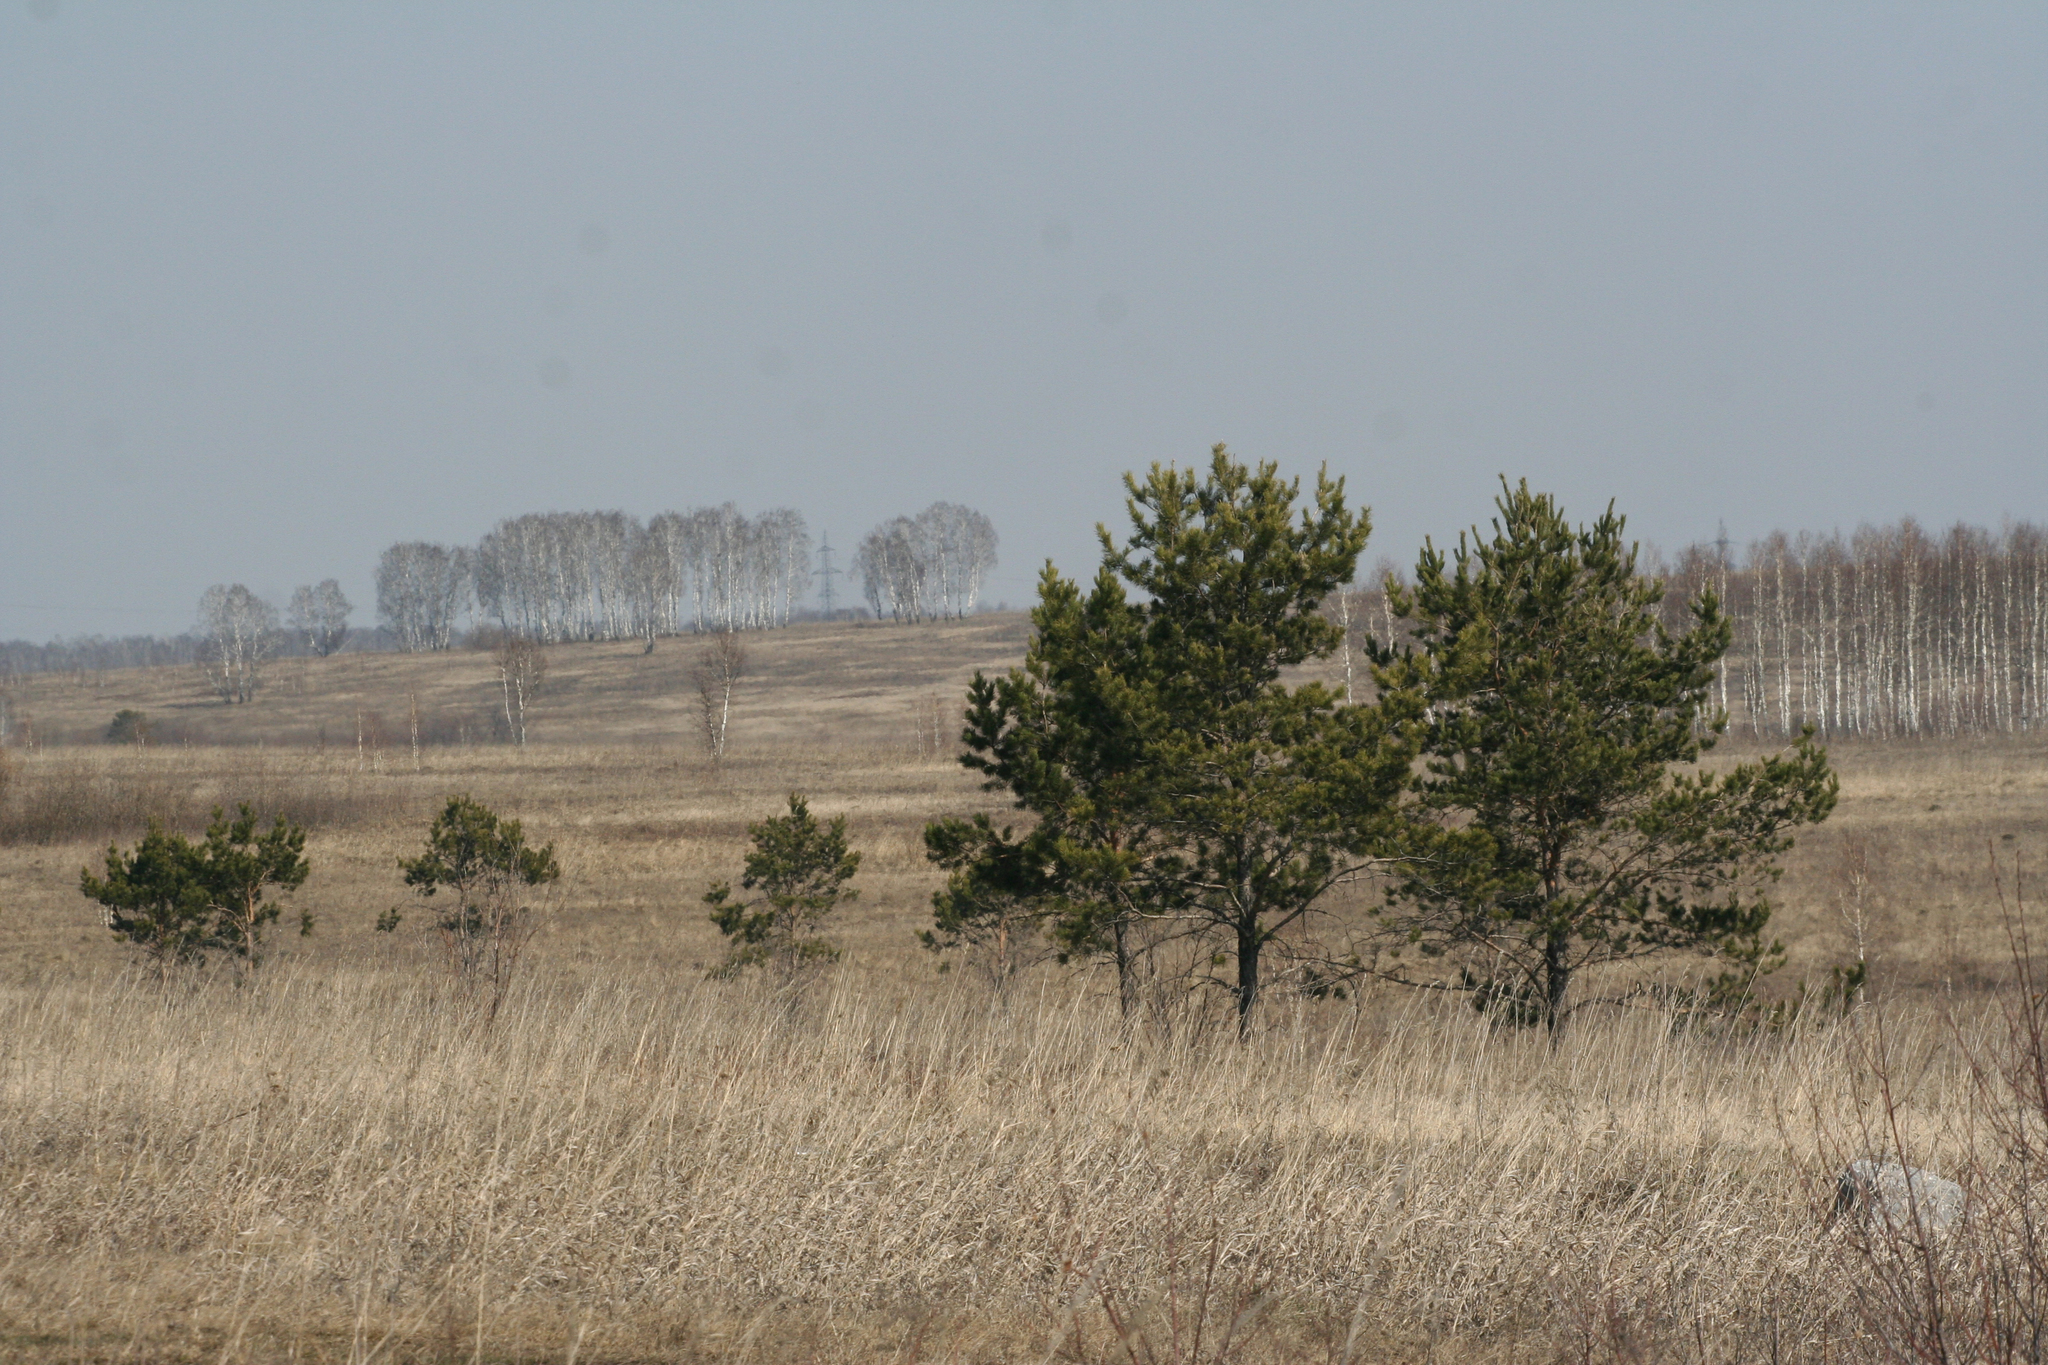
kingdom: Plantae
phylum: Tracheophyta
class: Pinopsida
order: Pinales
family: Pinaceae
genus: Pinus
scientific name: Pinus sylvestris
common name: Scots pine
